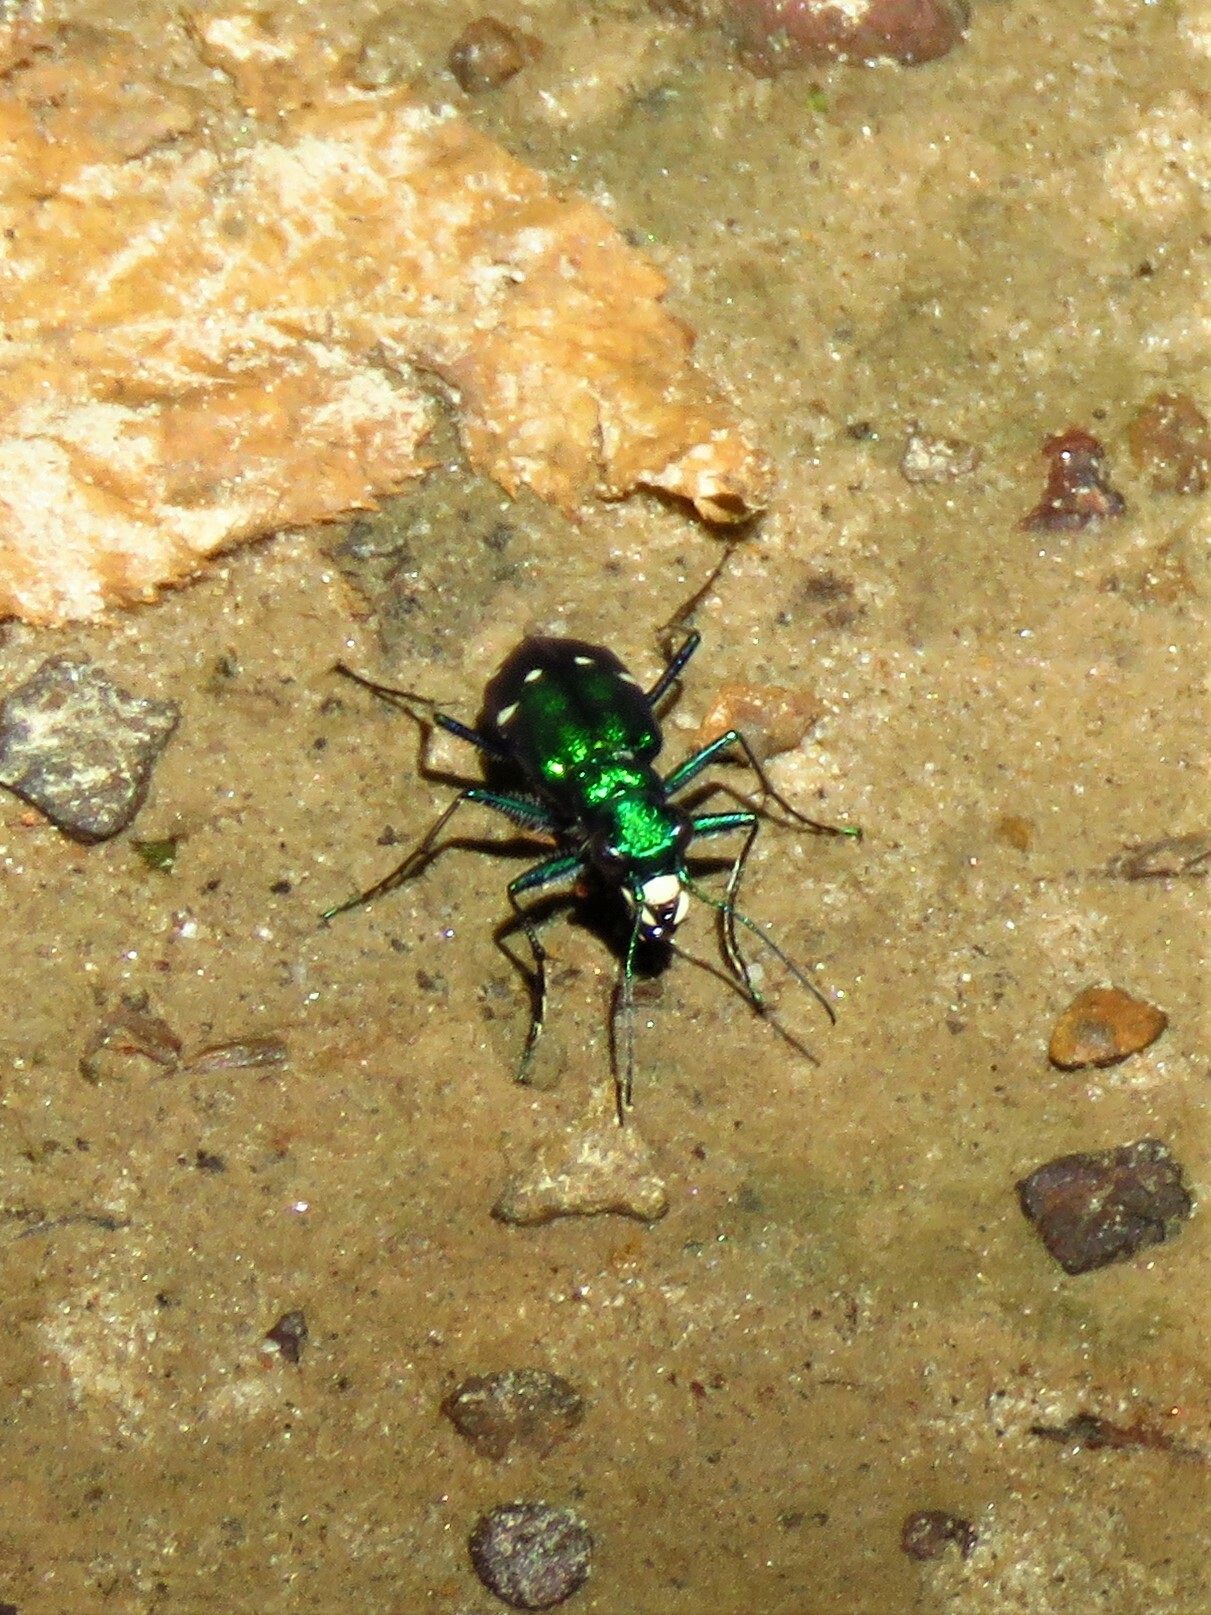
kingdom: Animalia
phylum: Arthropoda
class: Insecta
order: Coleoptera
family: Carabidae
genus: Cicindela
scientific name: Cicindela sexguttata
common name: Six-spotted tiger beetle
